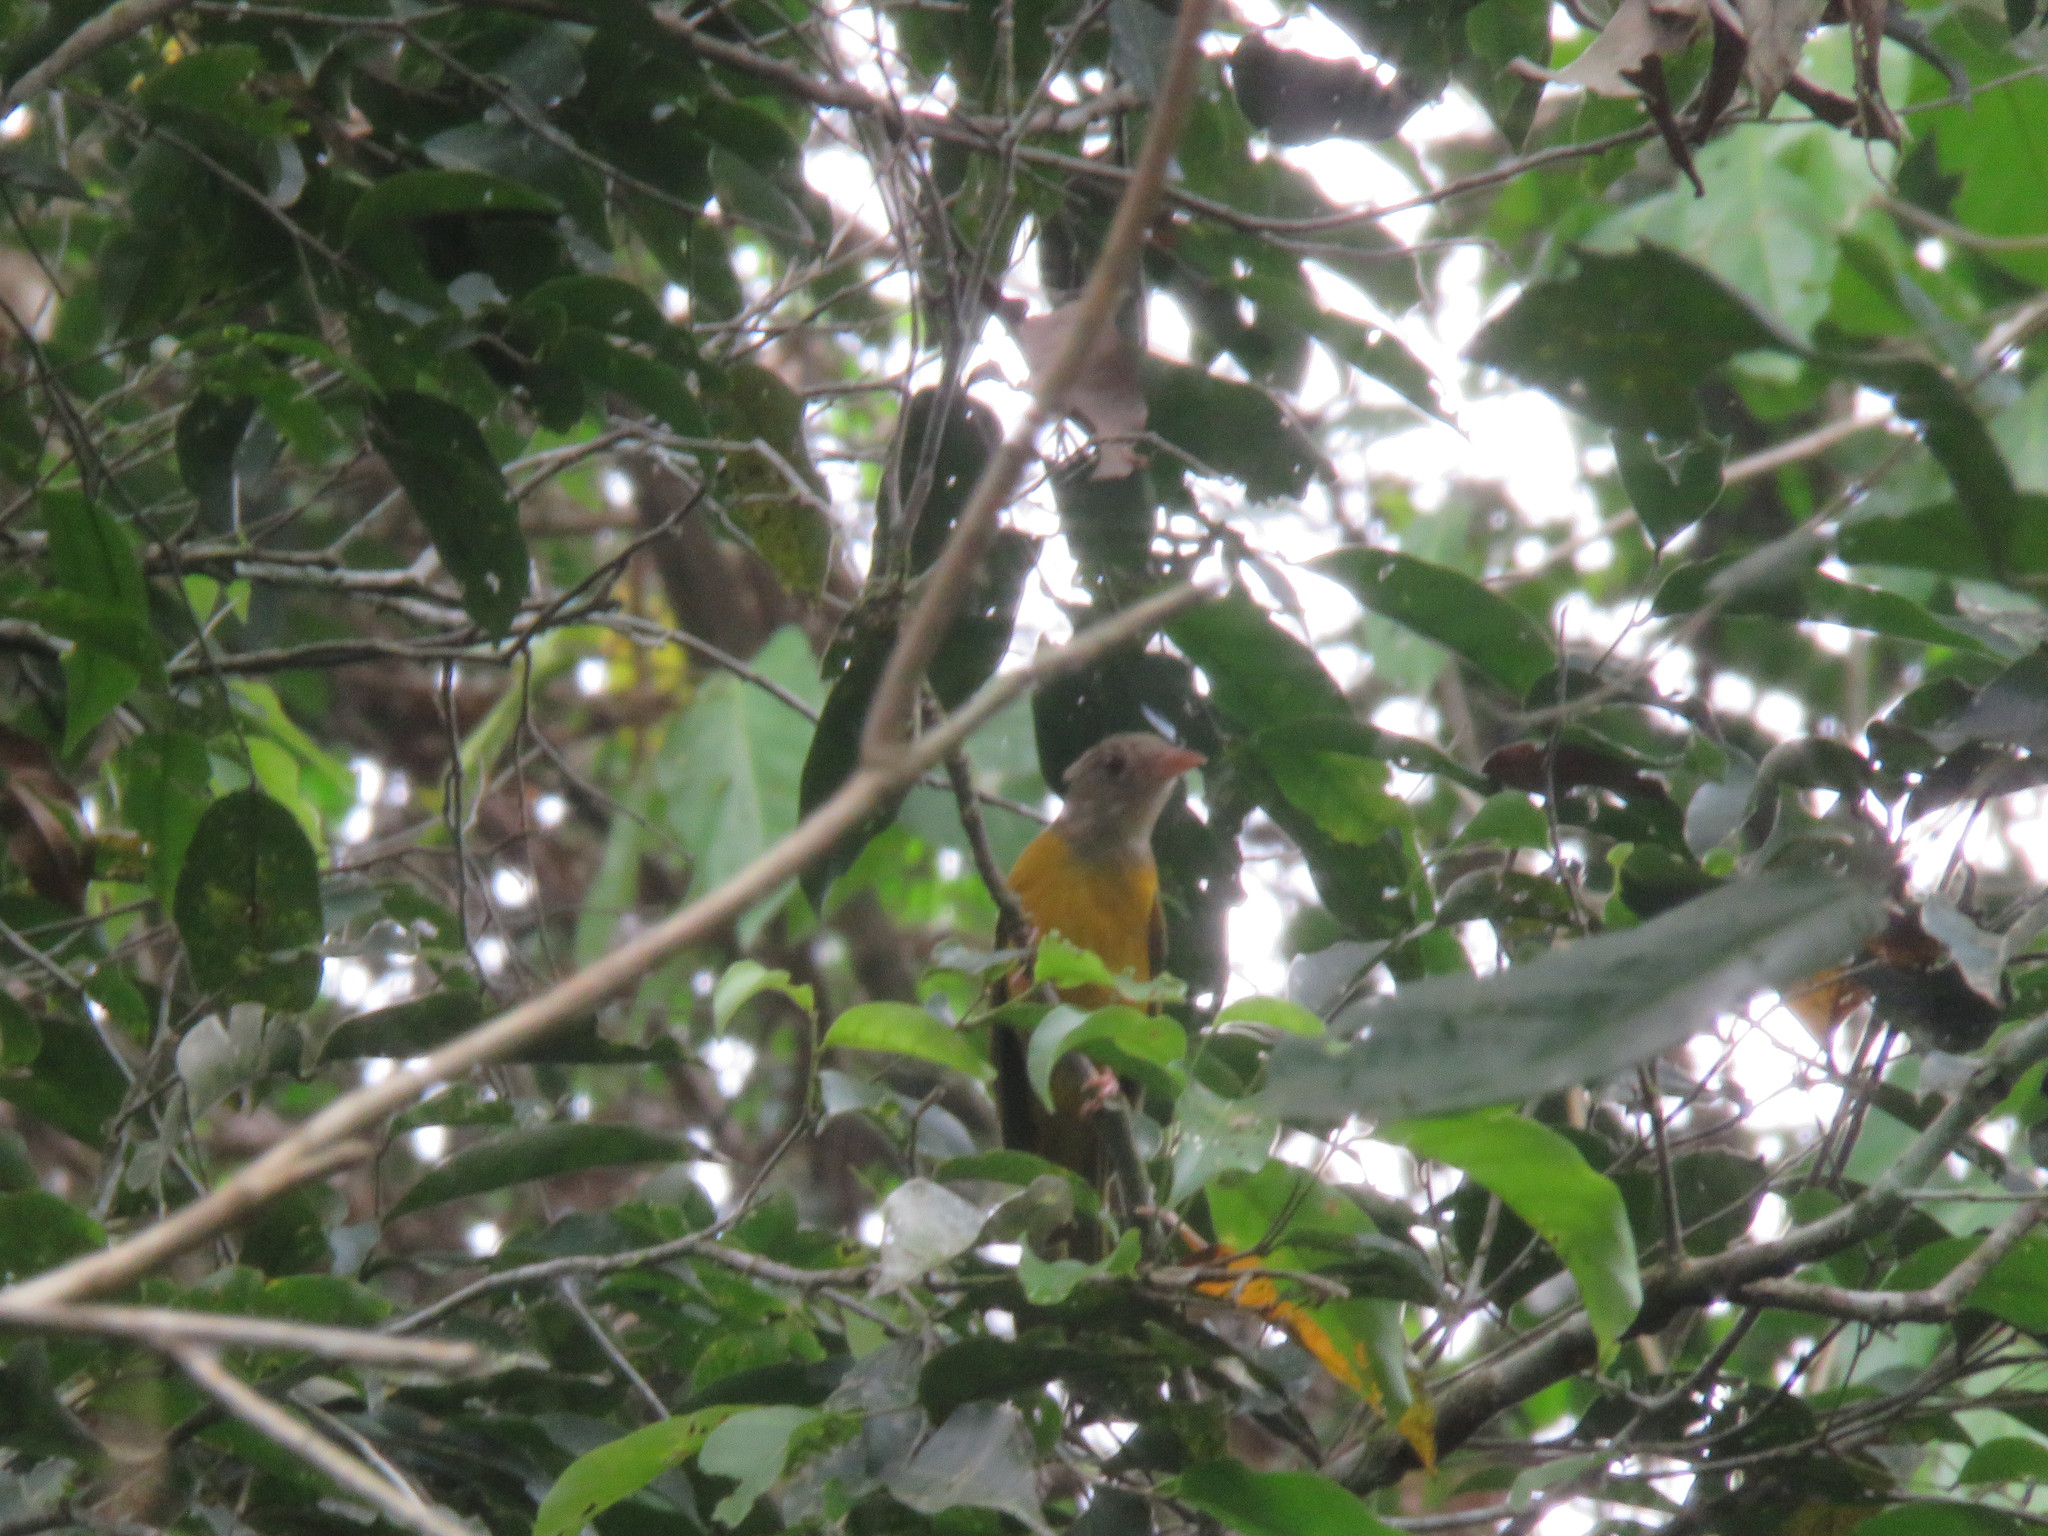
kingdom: Animalia
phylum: Chordata
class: Aves
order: Passeriformes
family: Thraupidae
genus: Eucometis
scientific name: Eucometis penicillata
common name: Grey-headed tanager
